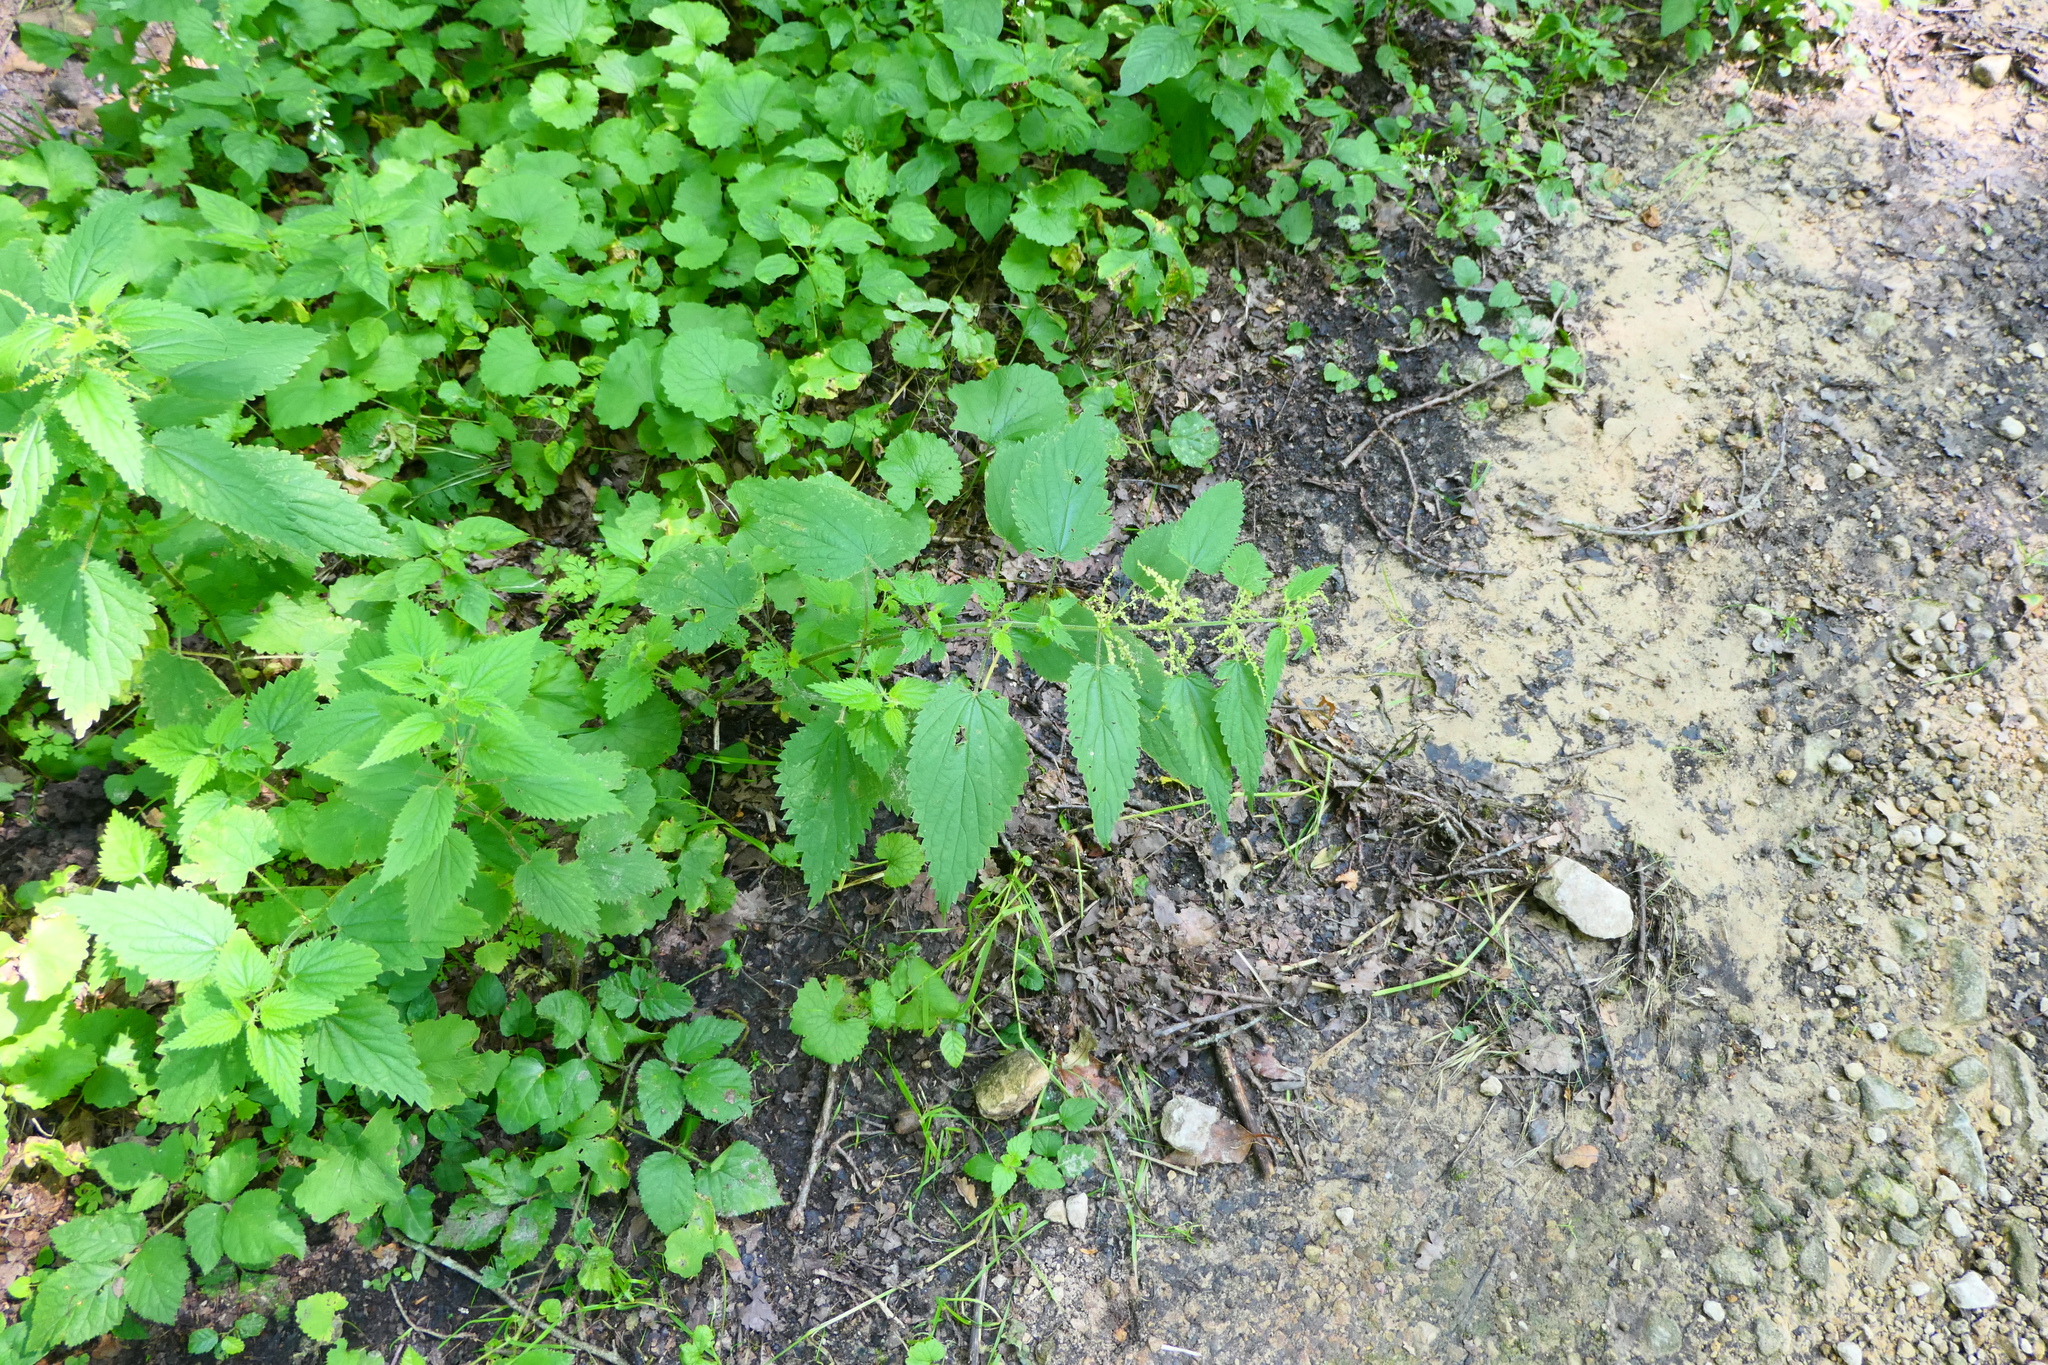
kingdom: Plantae
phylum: Tracheophyta
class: Magnoliopsida
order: Rosales
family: Urticaceae
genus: Urtica
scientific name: Urtica dioica
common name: Common nettle
